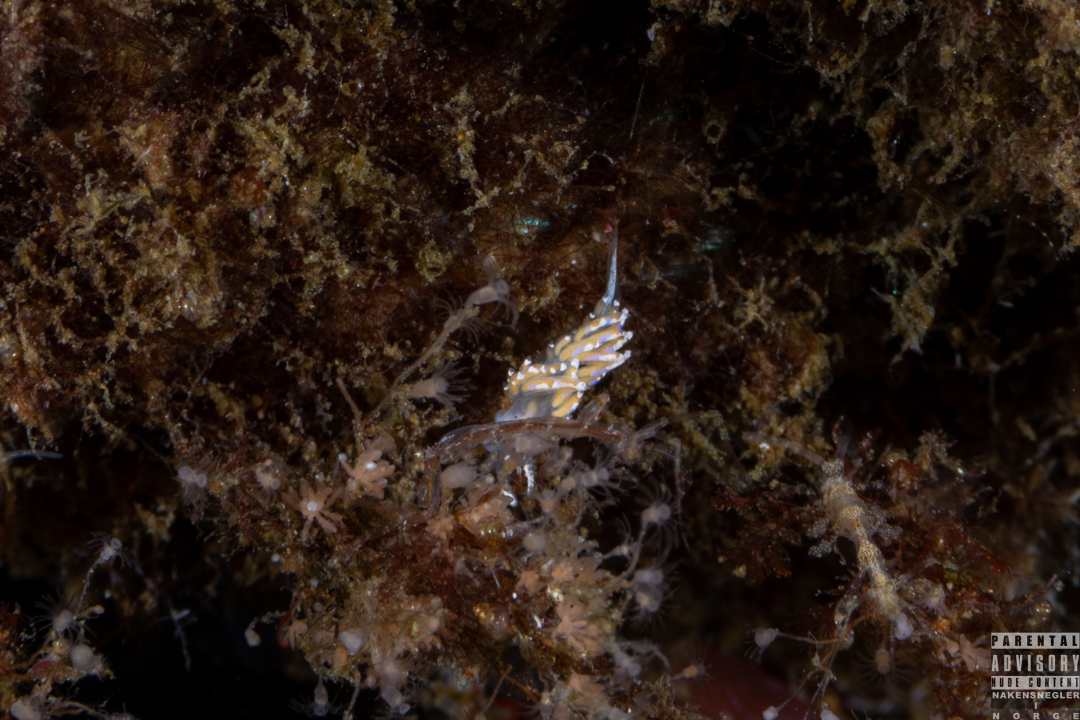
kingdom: Animalia
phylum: Mollusca
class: Gastropoda
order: Nudibranchia
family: Facelinidae
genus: Facelina
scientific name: Facelina auriculata
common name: Slender facelina
